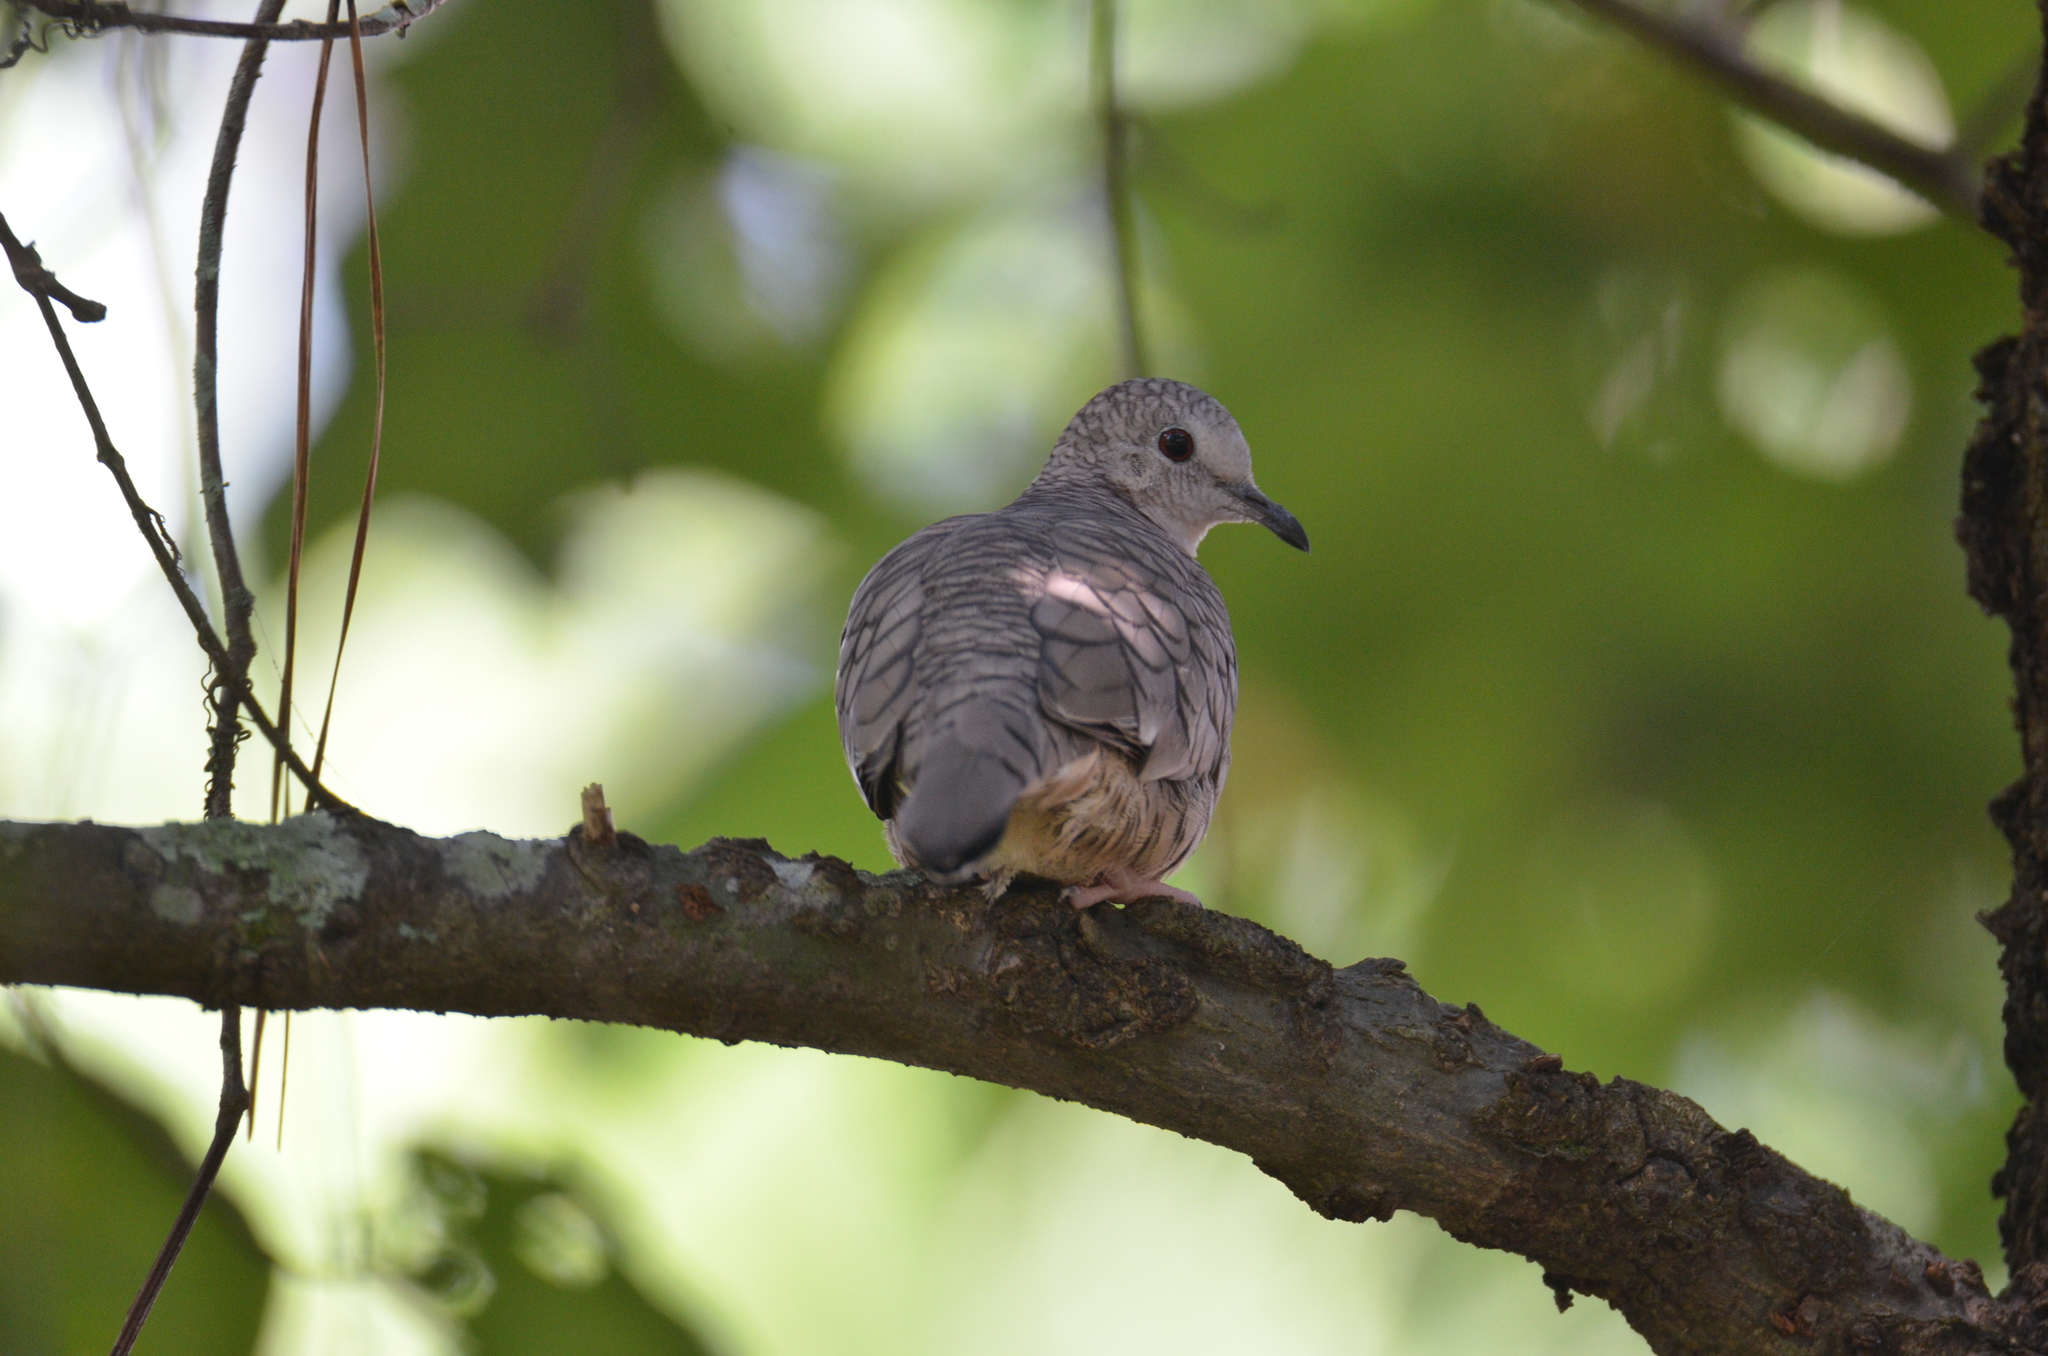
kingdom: Animalia
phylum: Chordata
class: Aves
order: Columbiformes
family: Columbidae
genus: Columbina
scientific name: Columbina inca
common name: Inca dove
